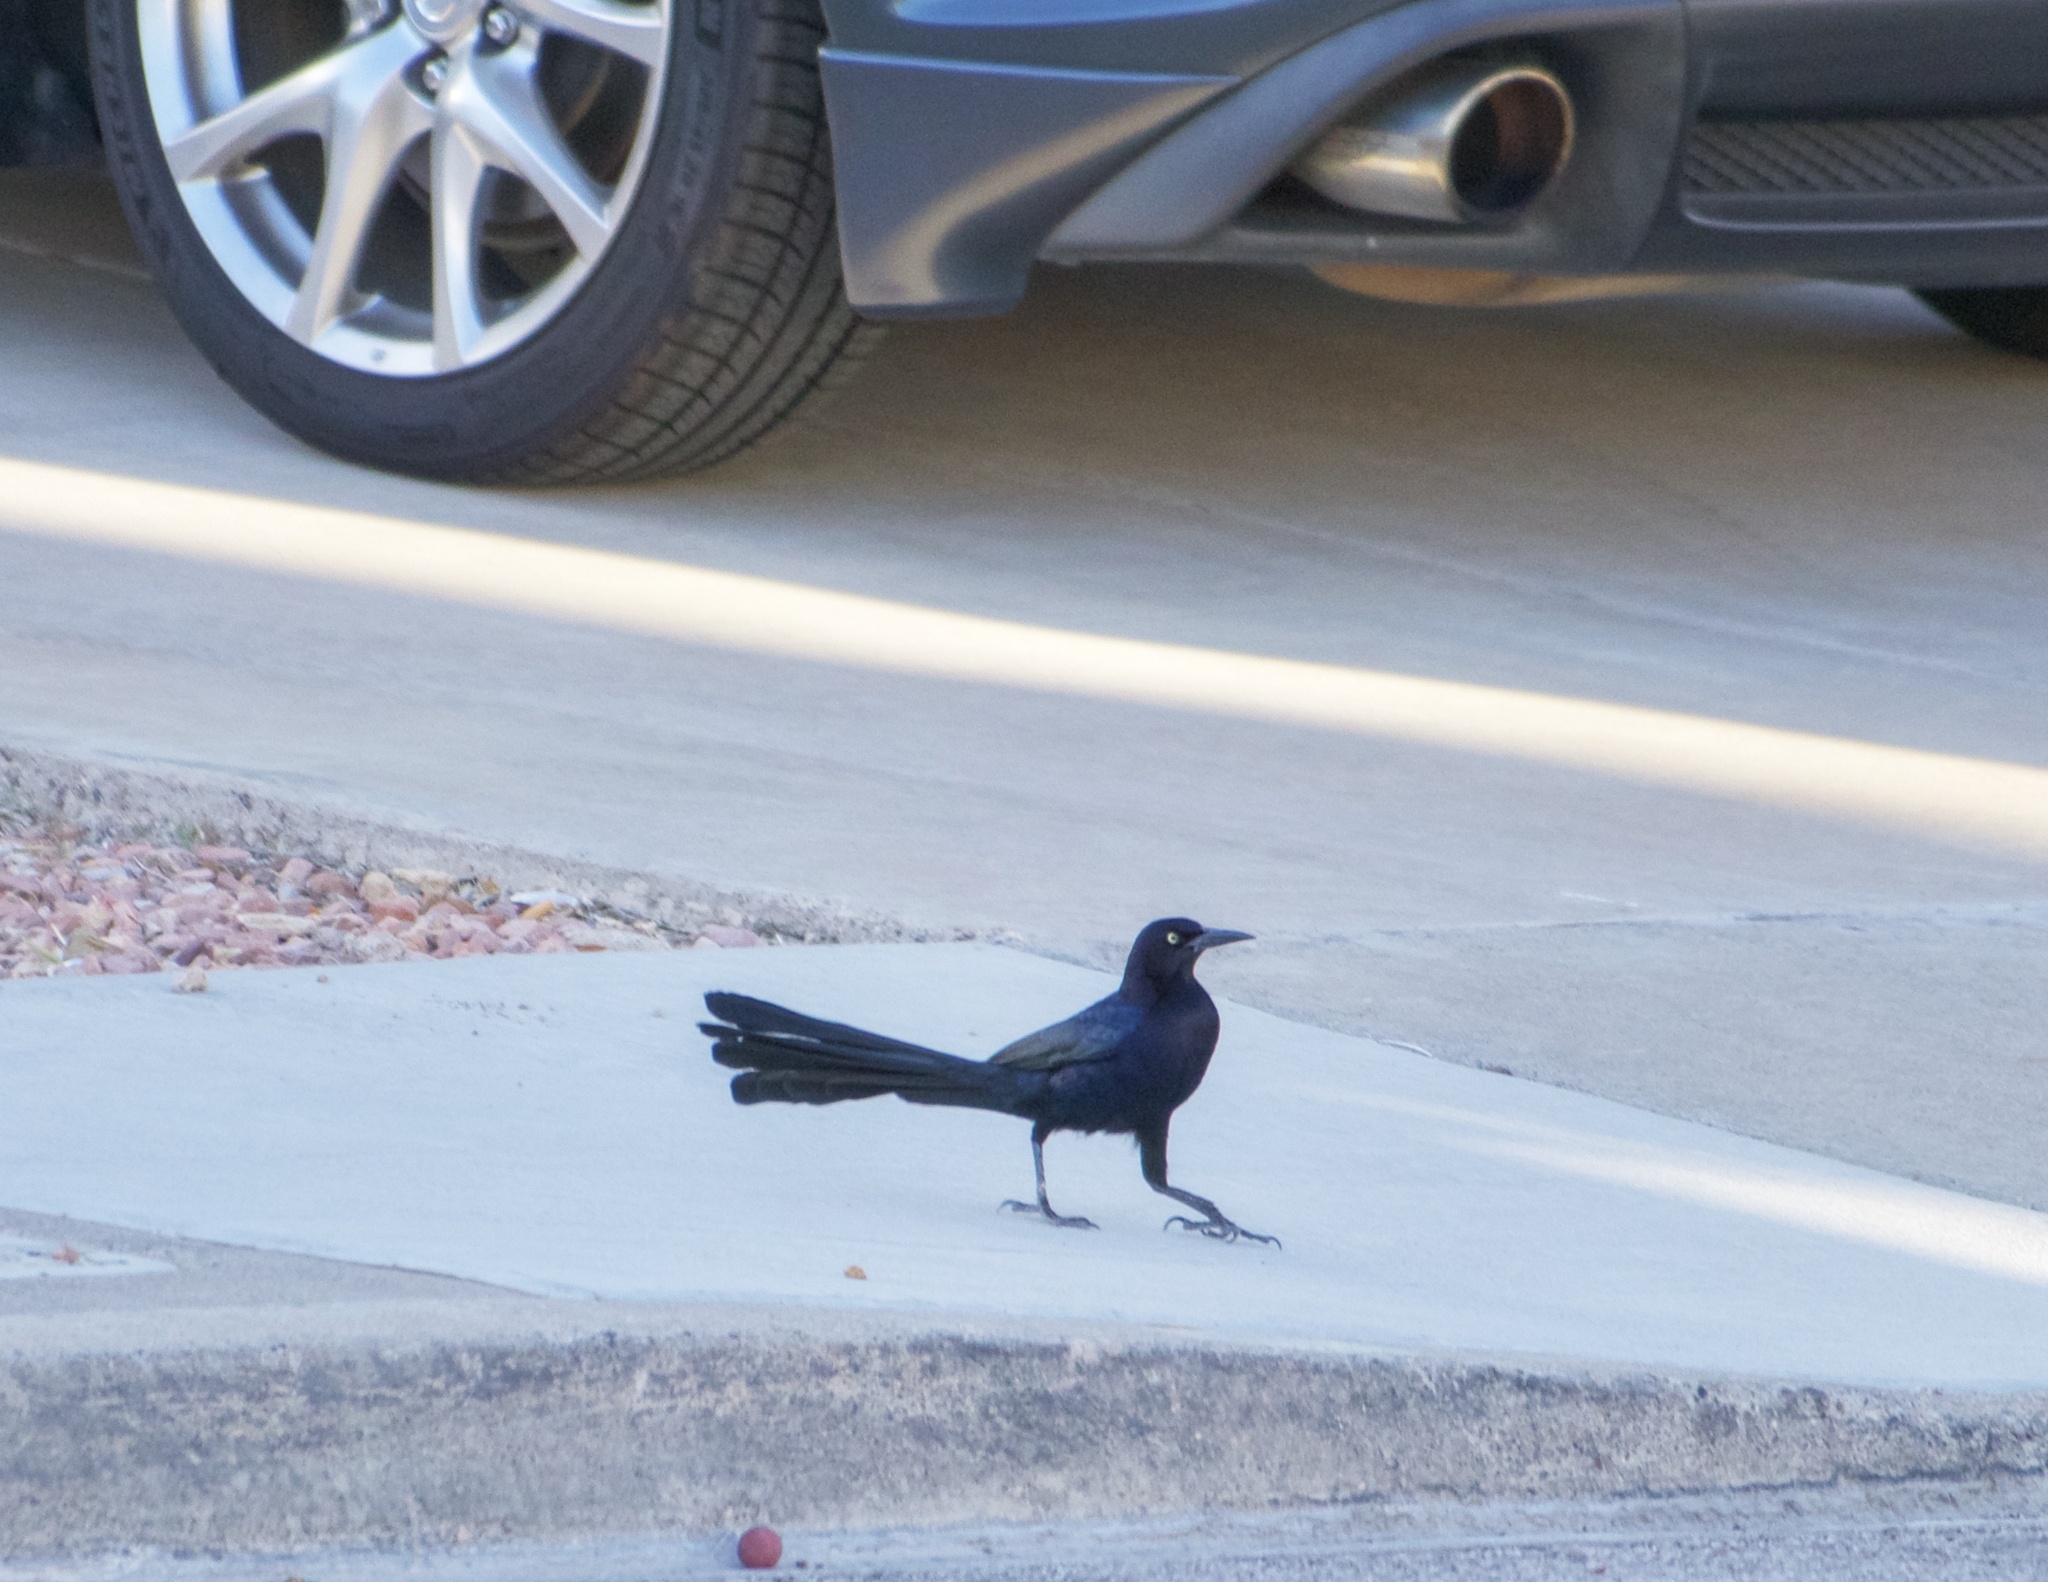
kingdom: Animalia
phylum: Chordata
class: Aves
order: Passeriformes
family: Icteridae
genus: Quiscalus
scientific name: Quiscalus mexicanus
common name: Great-tailed grackle
